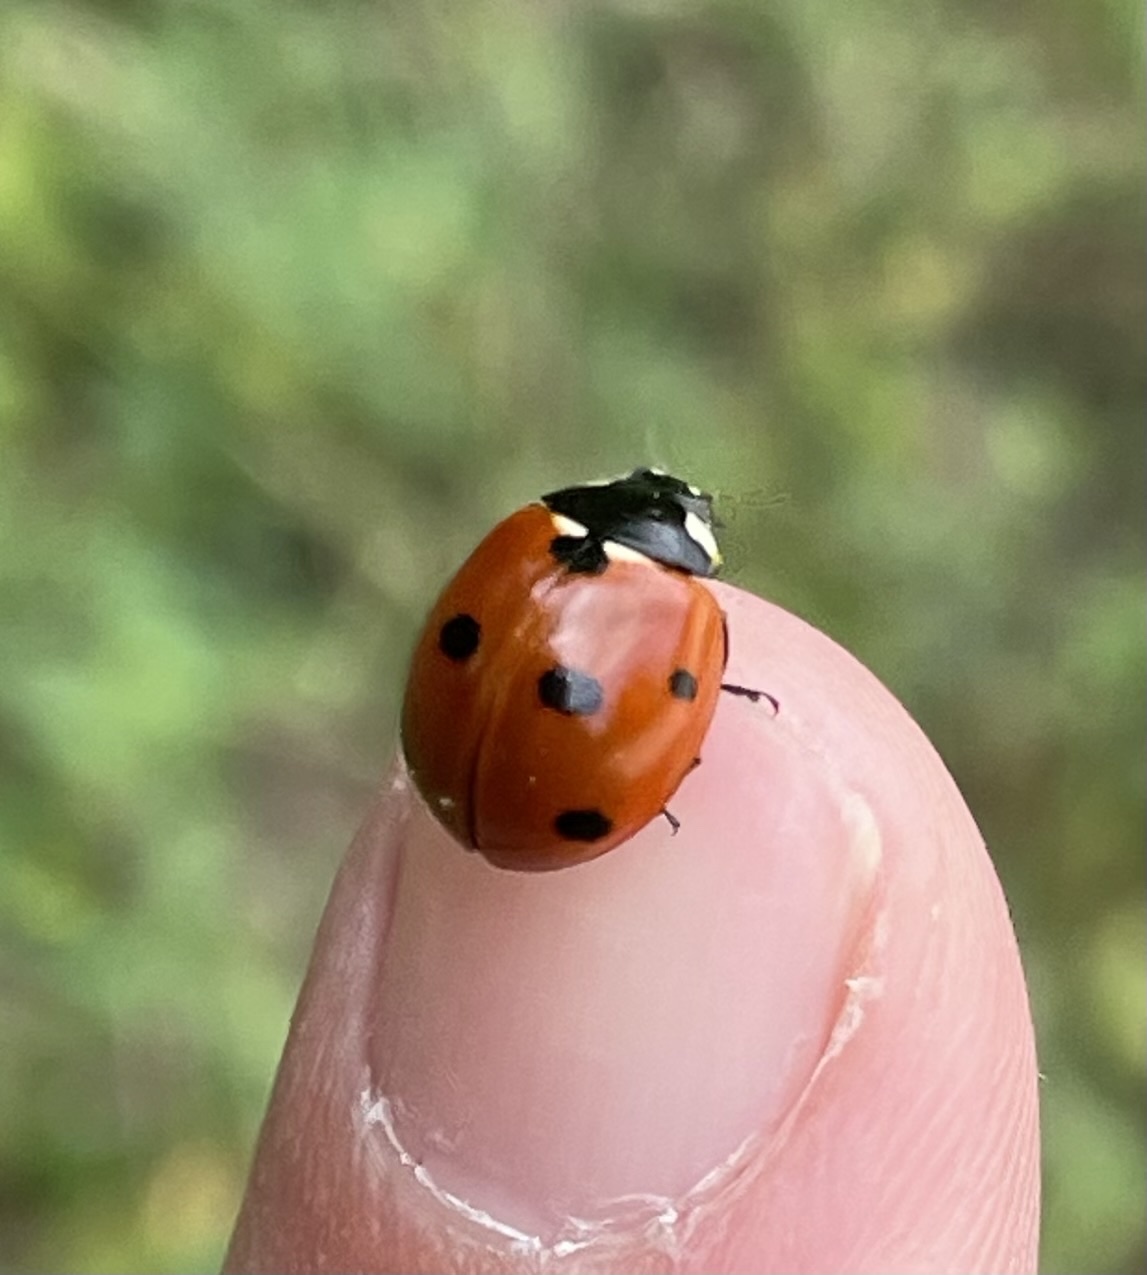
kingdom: Animalia
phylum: Arthropoda
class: Insecta
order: Coleoptera
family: Coccinellidae
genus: Coccinella
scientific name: Coccinella septempunctata
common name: Sevenspotted lady beetle
